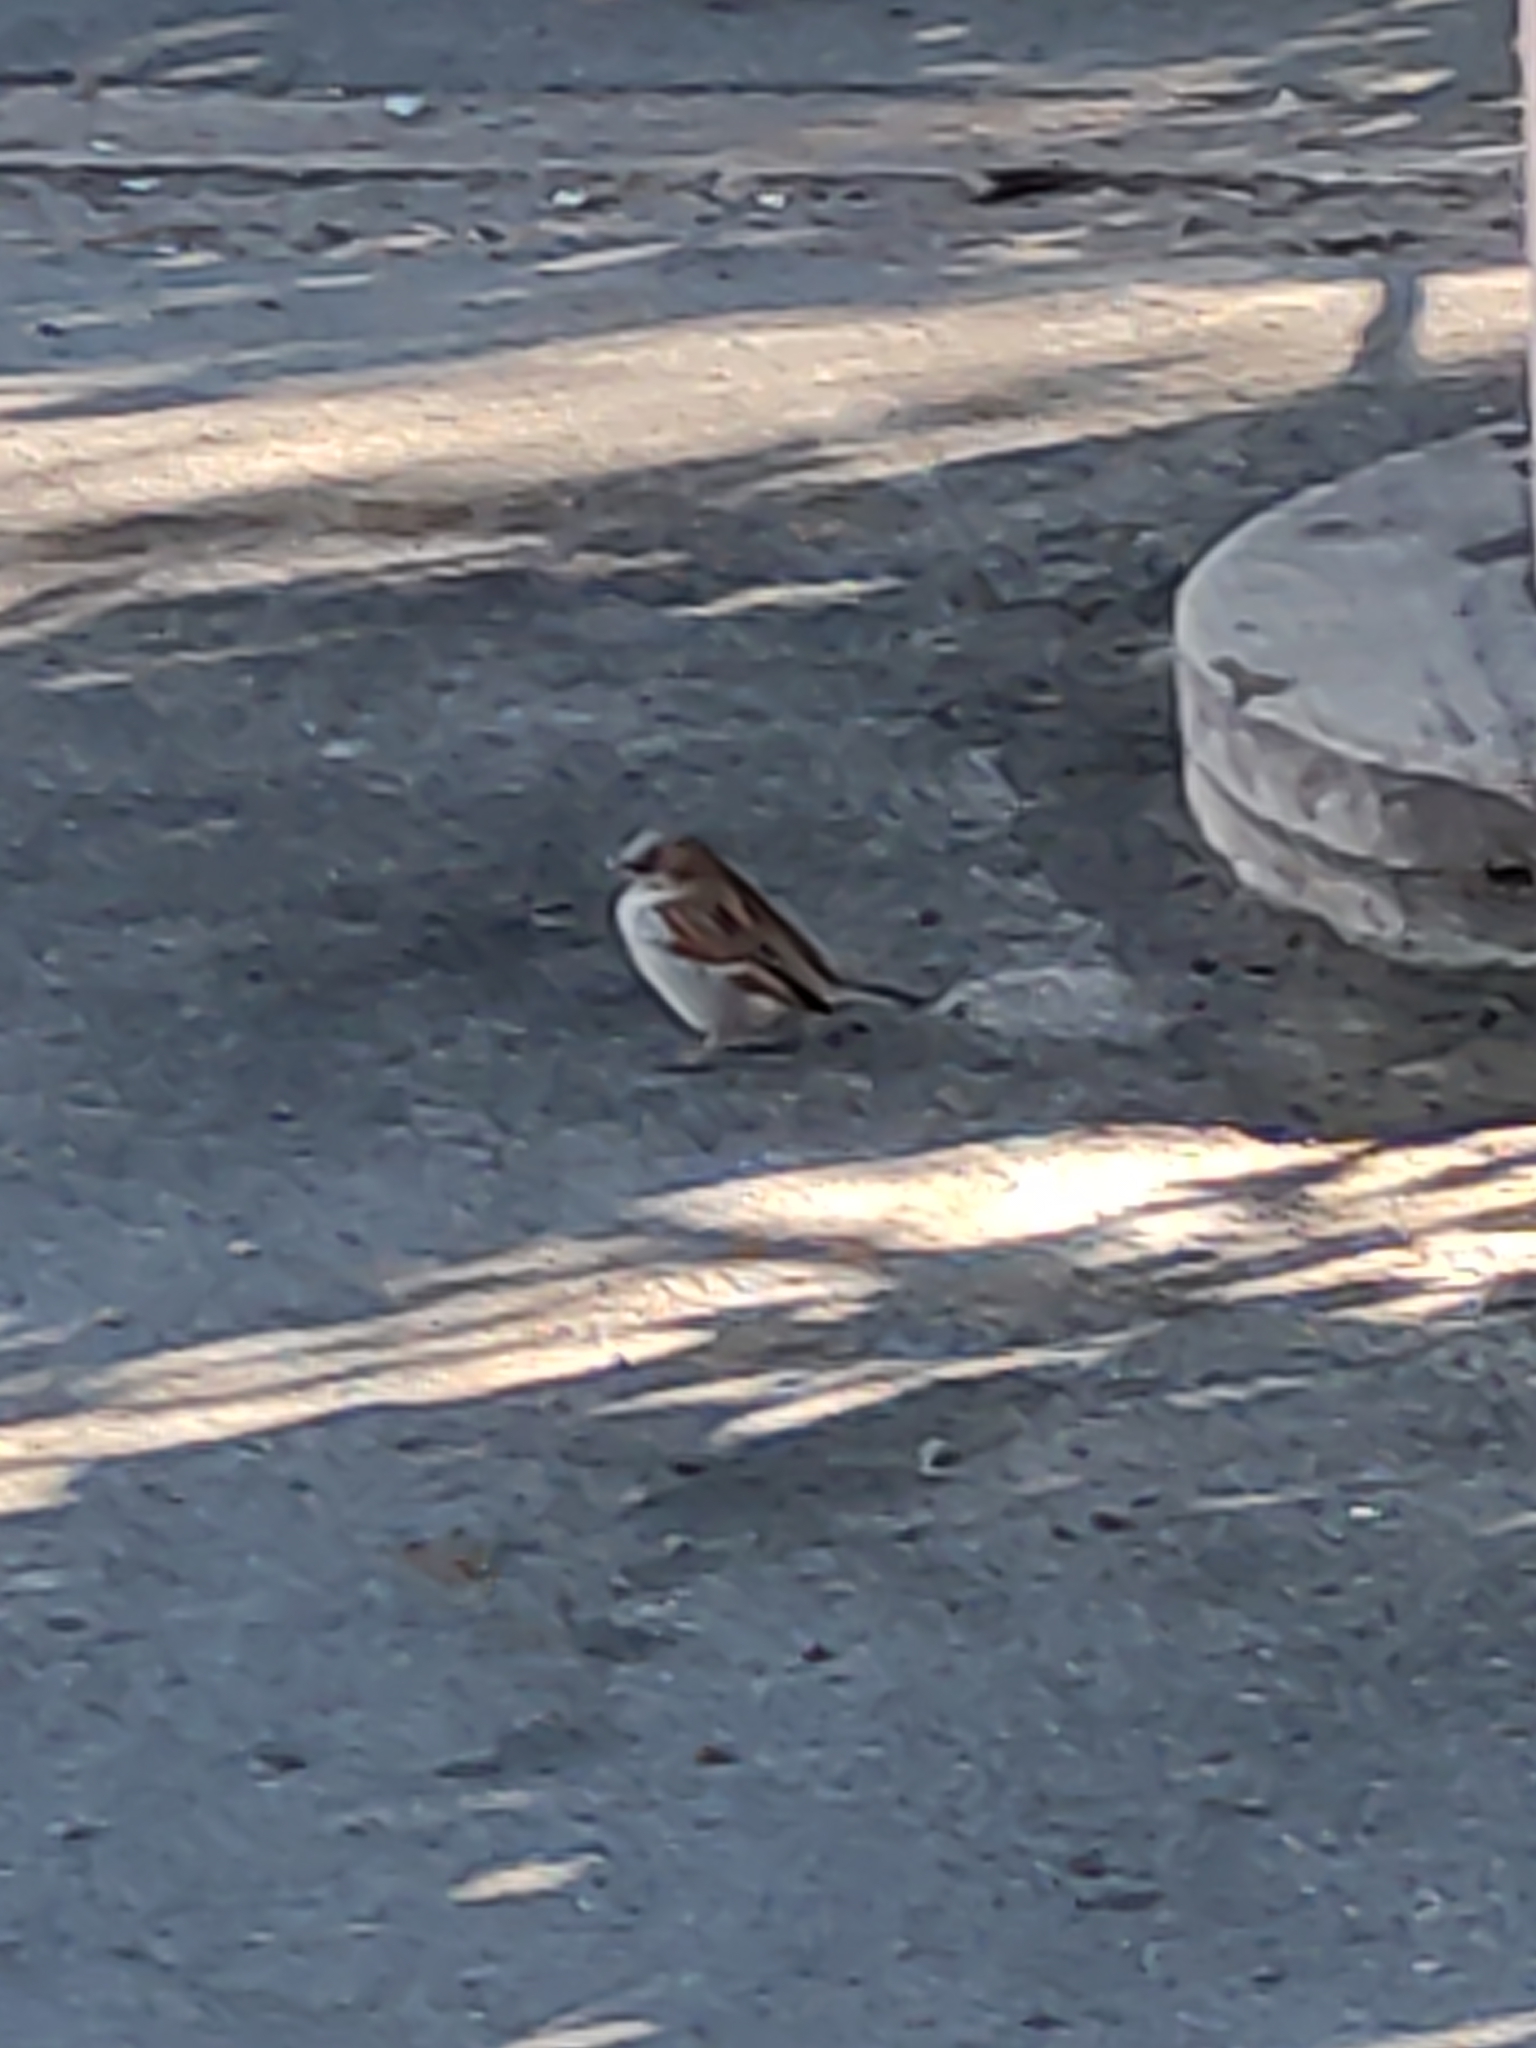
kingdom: Animalia
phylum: Chordata
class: Aves
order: Passeriformes
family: Passeridae
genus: Passer
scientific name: Passer domesticus
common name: House sparrow
